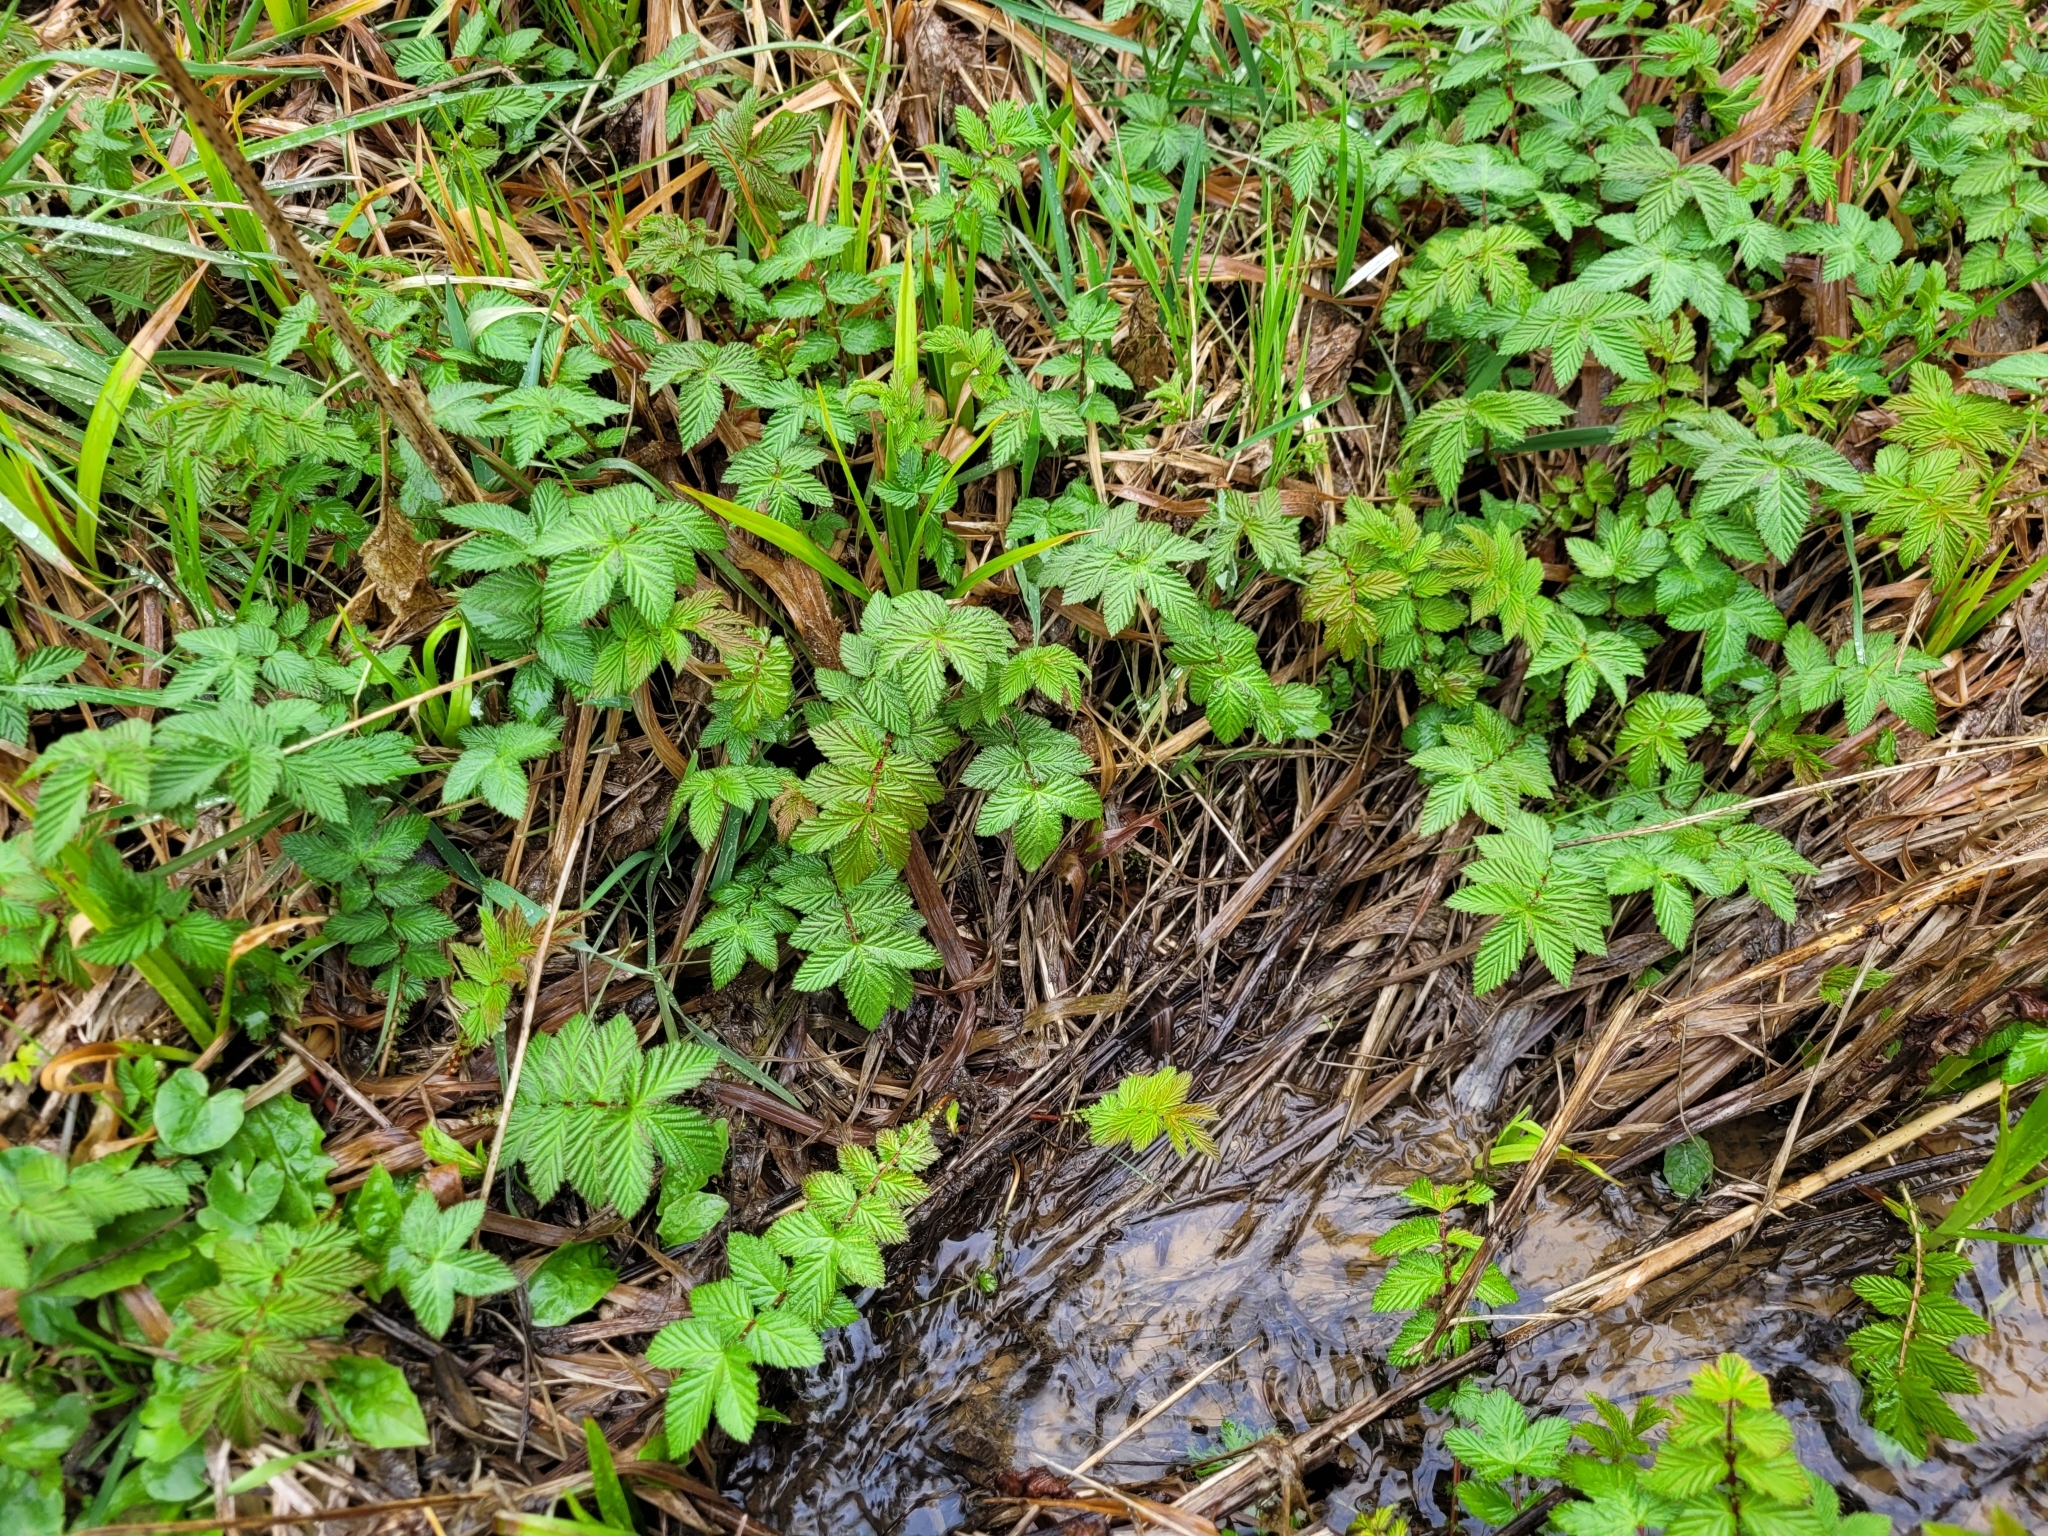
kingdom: Plantae
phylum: Tracheophyta
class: Magnoliopsida
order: Rosales
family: Rosaceae
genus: Filipendula
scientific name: Filipendula ulmaria
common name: Meadowsweet
